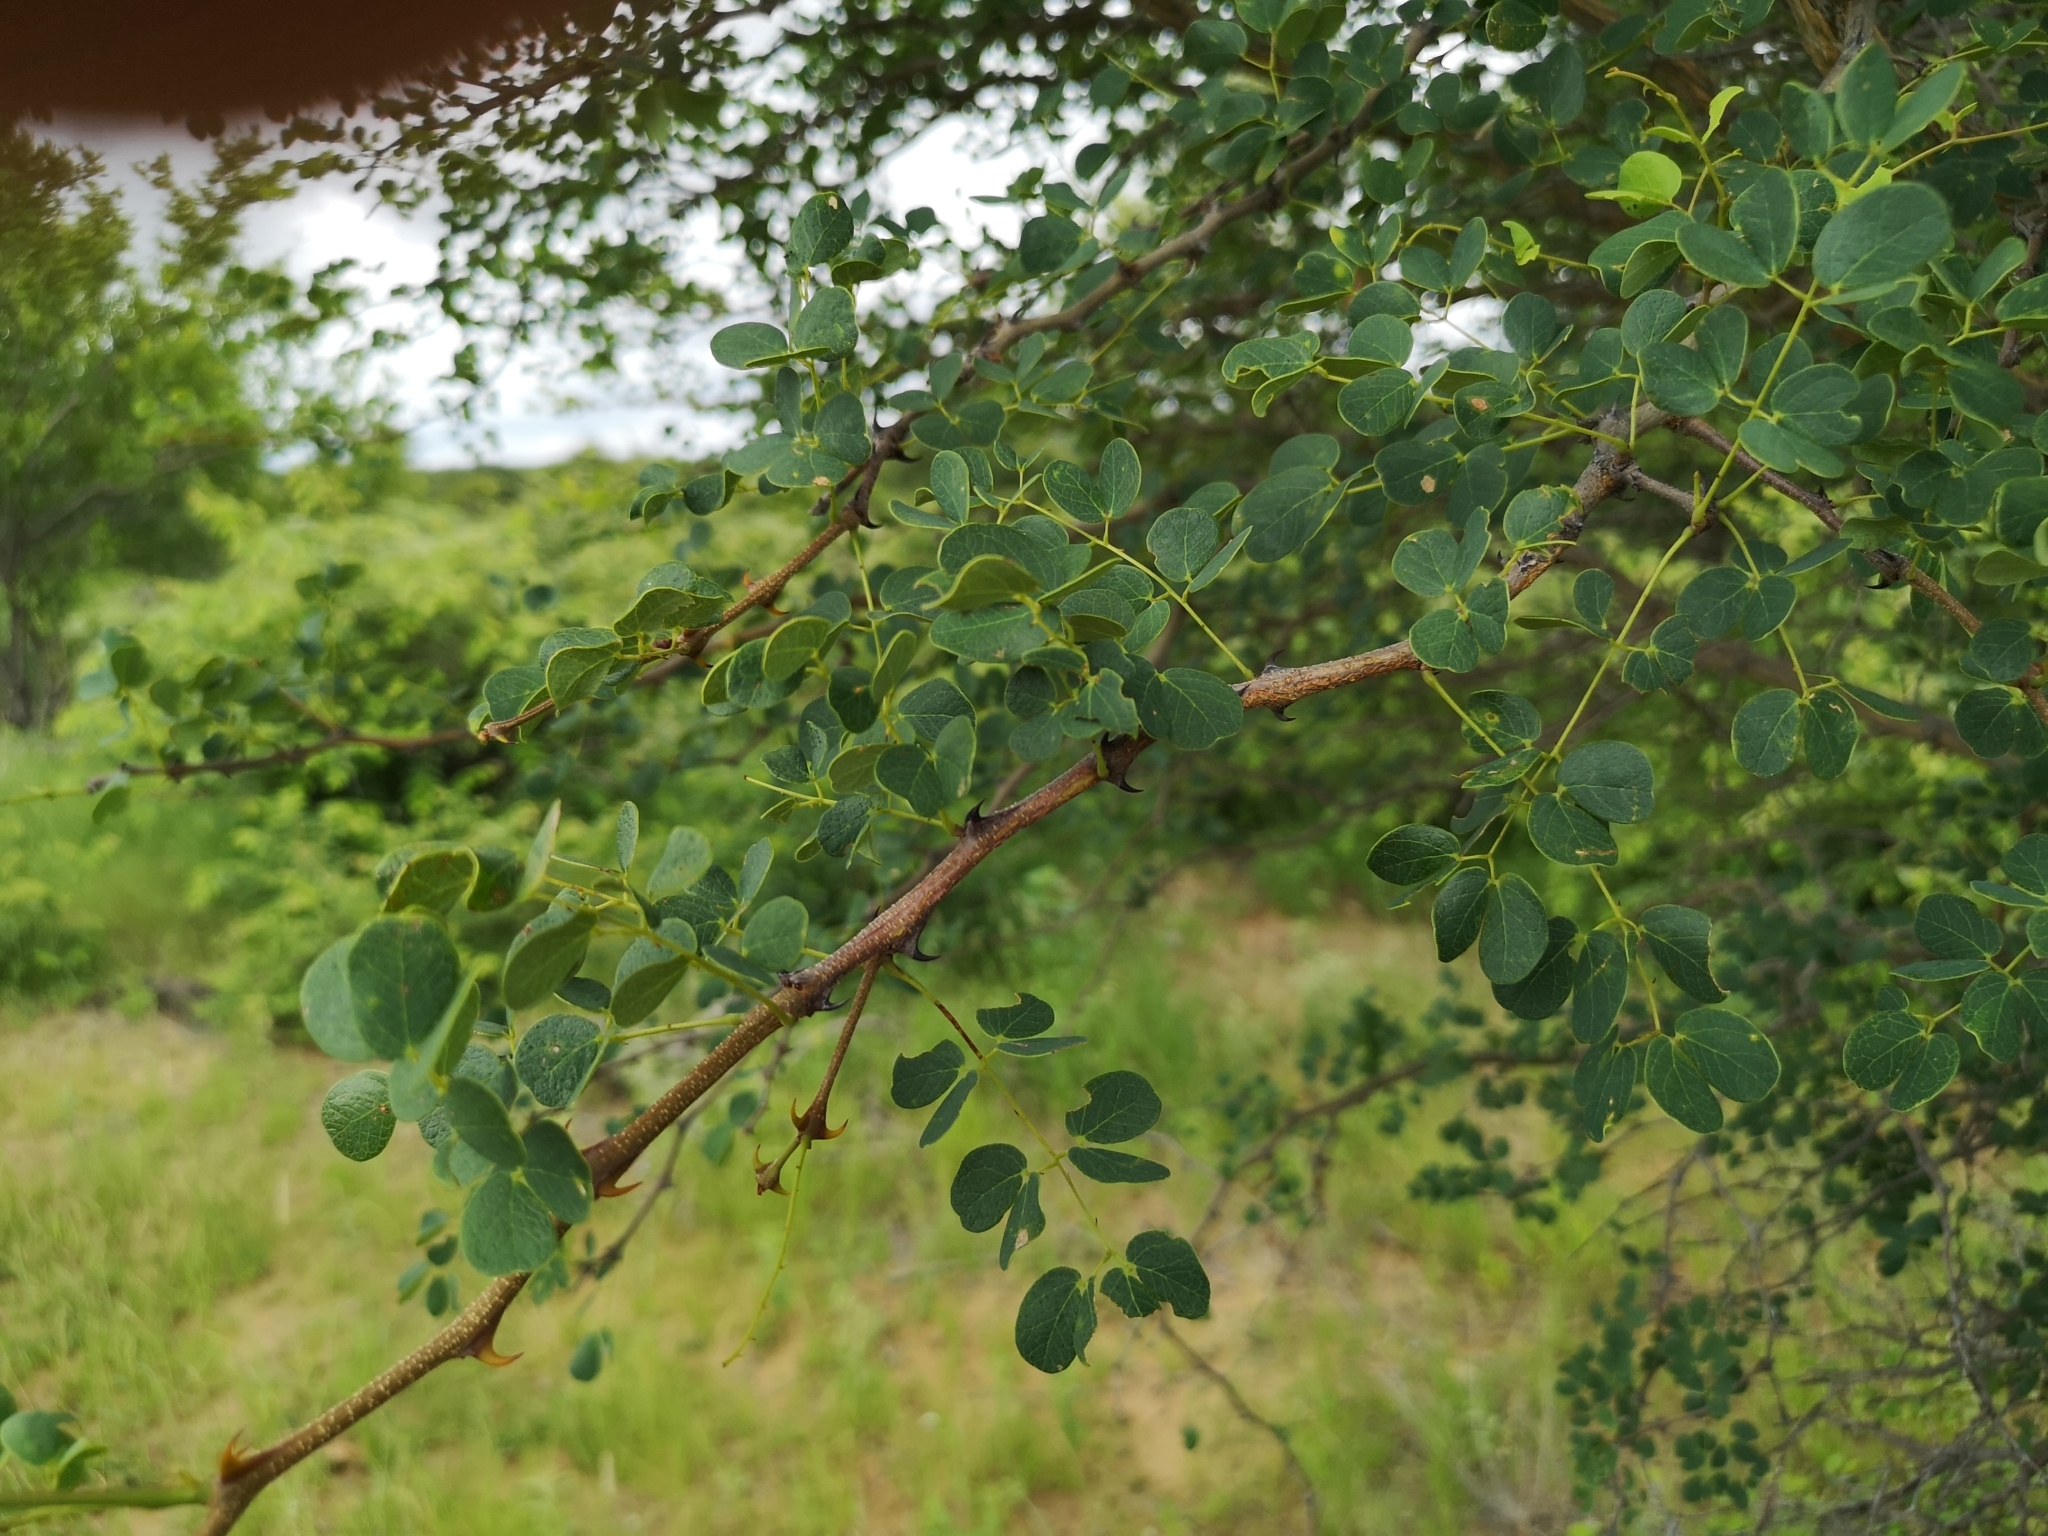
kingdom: Plantae
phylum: Tracheophyta
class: Magnoliopsida
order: Fabales
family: Fabaceae
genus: Senegalia
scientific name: Senegalia nigrescens
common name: Knobthorn
